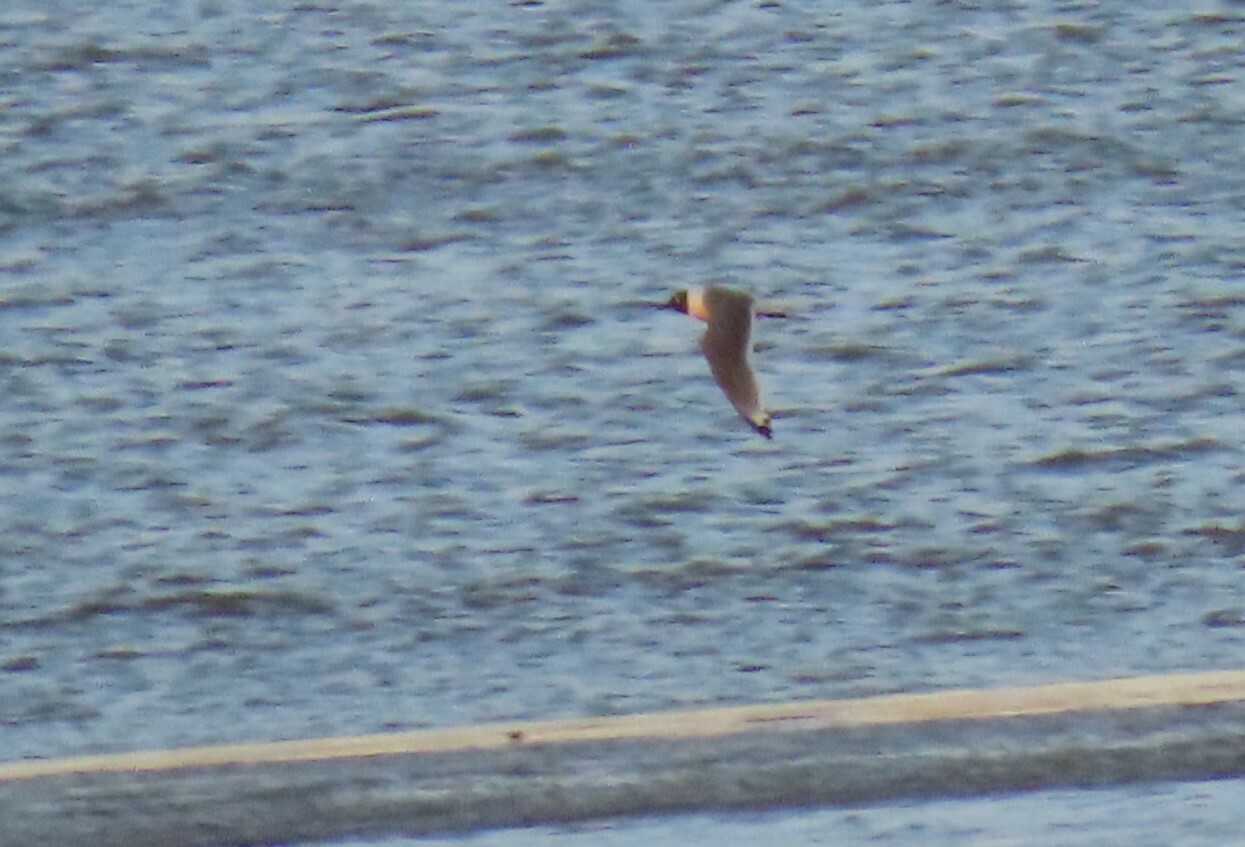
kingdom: Animalia
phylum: Chordata
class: Aves
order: Charadriiformes
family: Laridae
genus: Leucophaeus
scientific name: Leucophaeus pipixcan
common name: Franklin's gull
